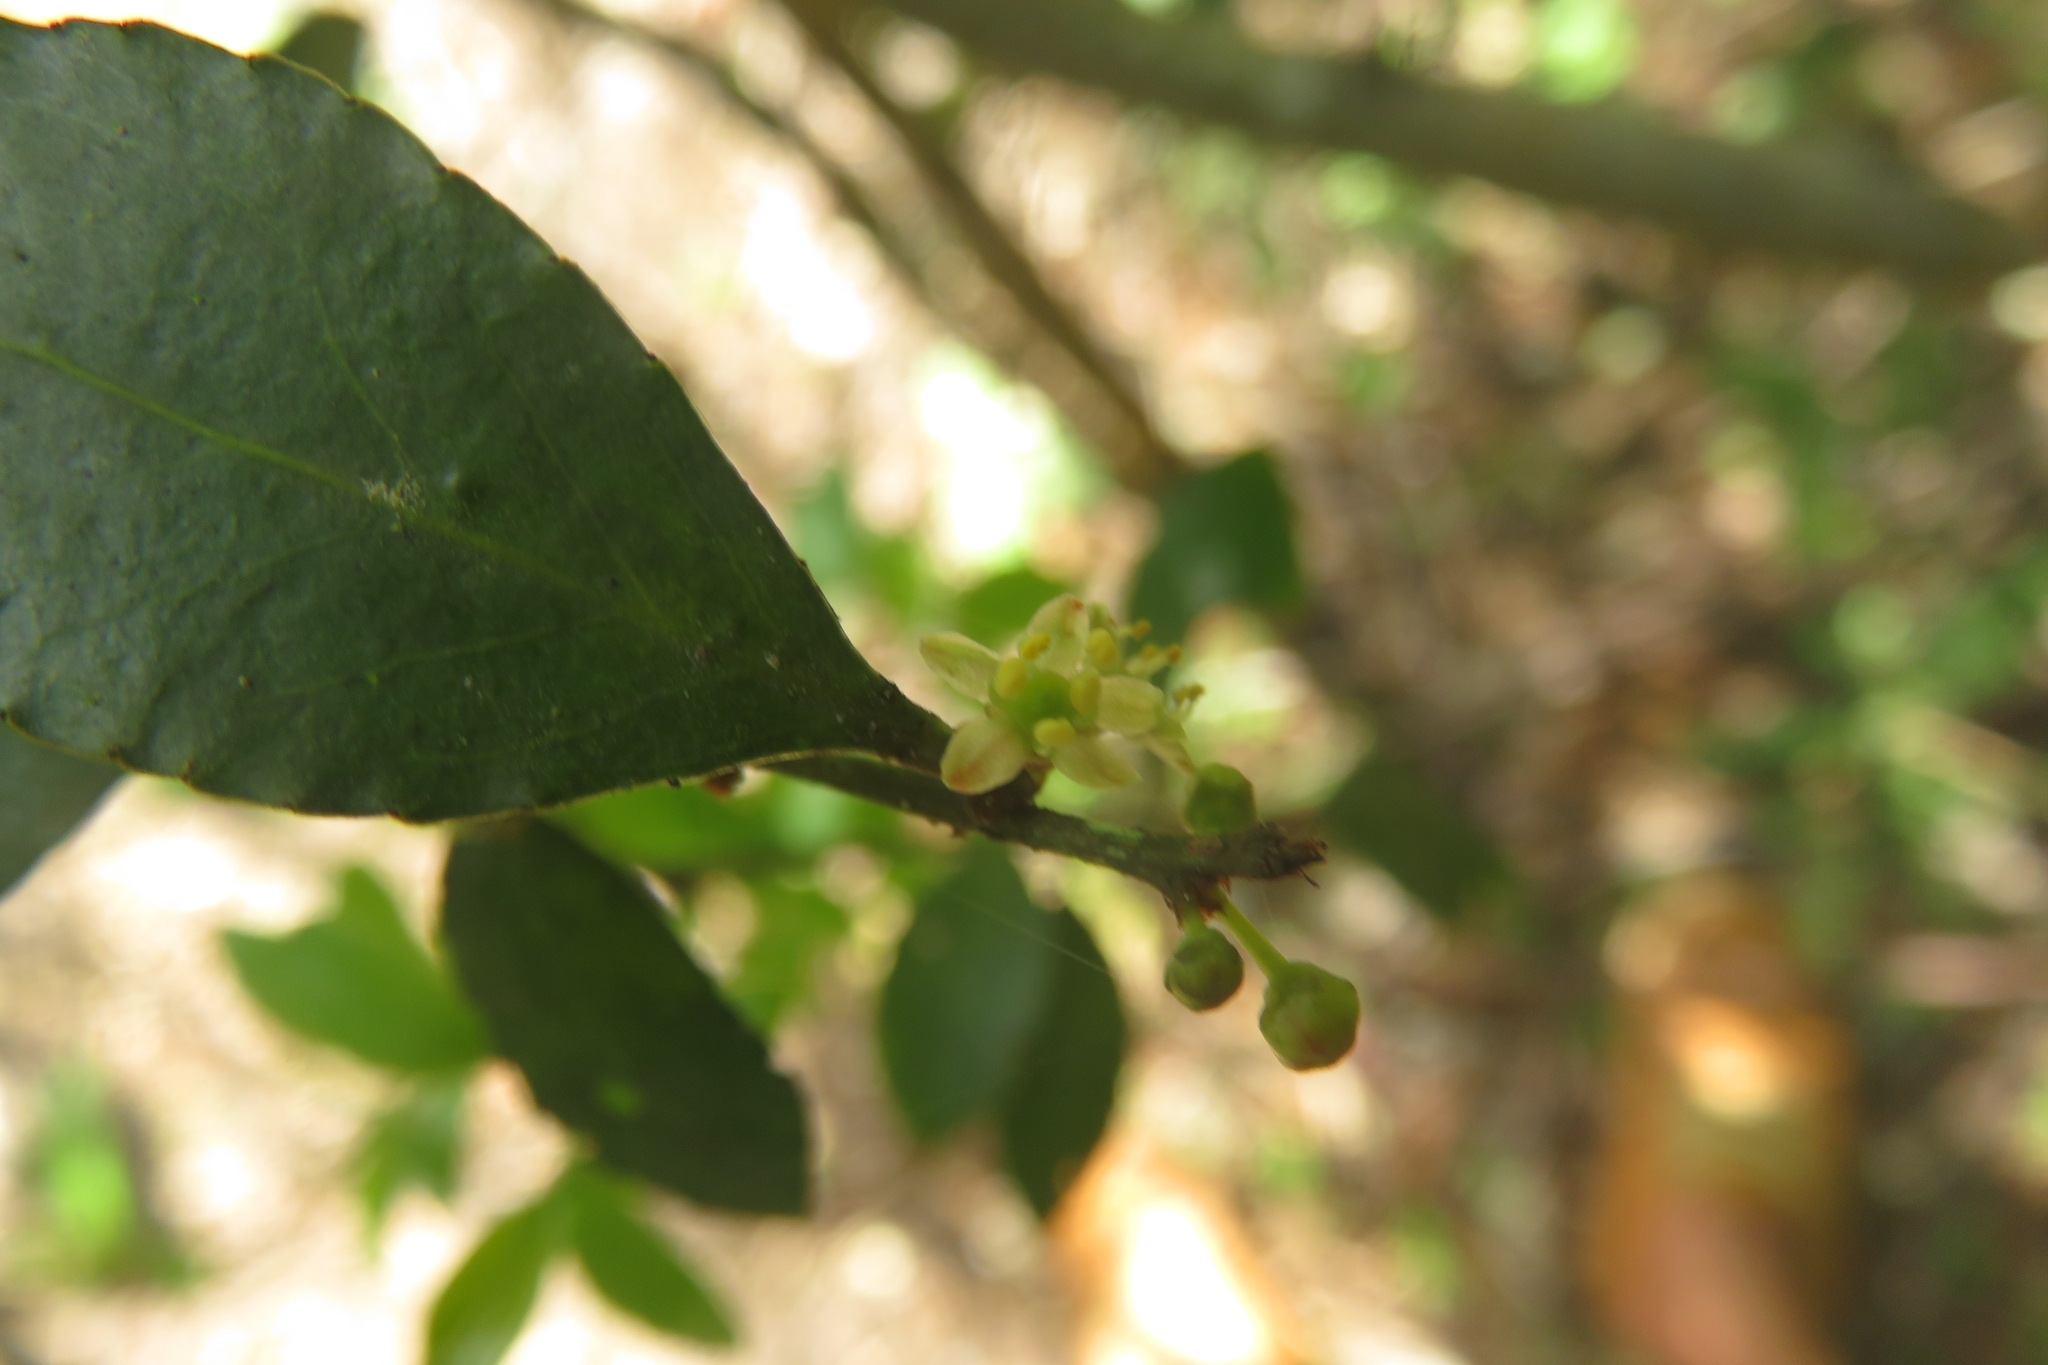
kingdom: Plantae
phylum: Tracheophyta
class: Magnoliopsida
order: Celastrales
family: Celastraceae
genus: Maytenus
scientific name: Maytenus boaria
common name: Mayten
